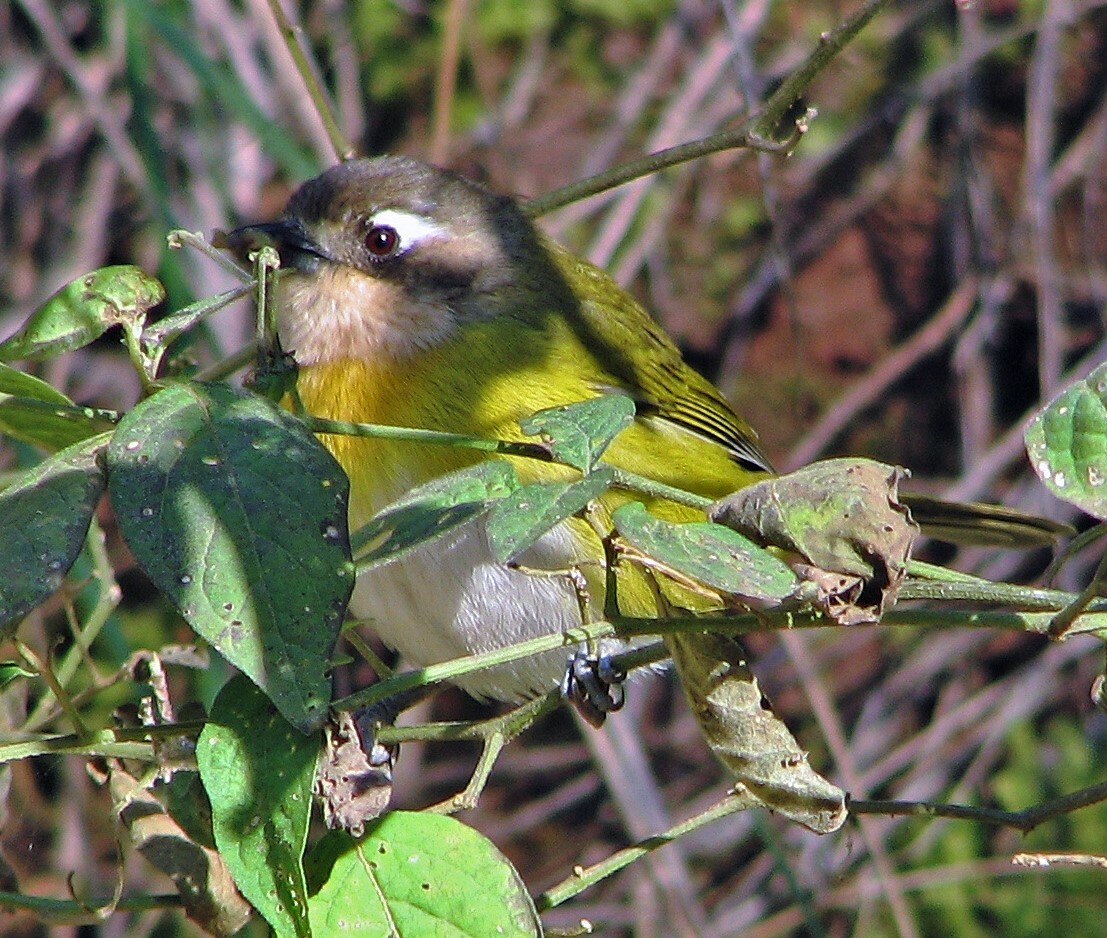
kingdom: Animalia
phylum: Chordata
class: Aves
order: Passeriformes
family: Passerellidae
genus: Chlorospingus
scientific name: Chlorospingus flavopectus
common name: Common chlorospingus
